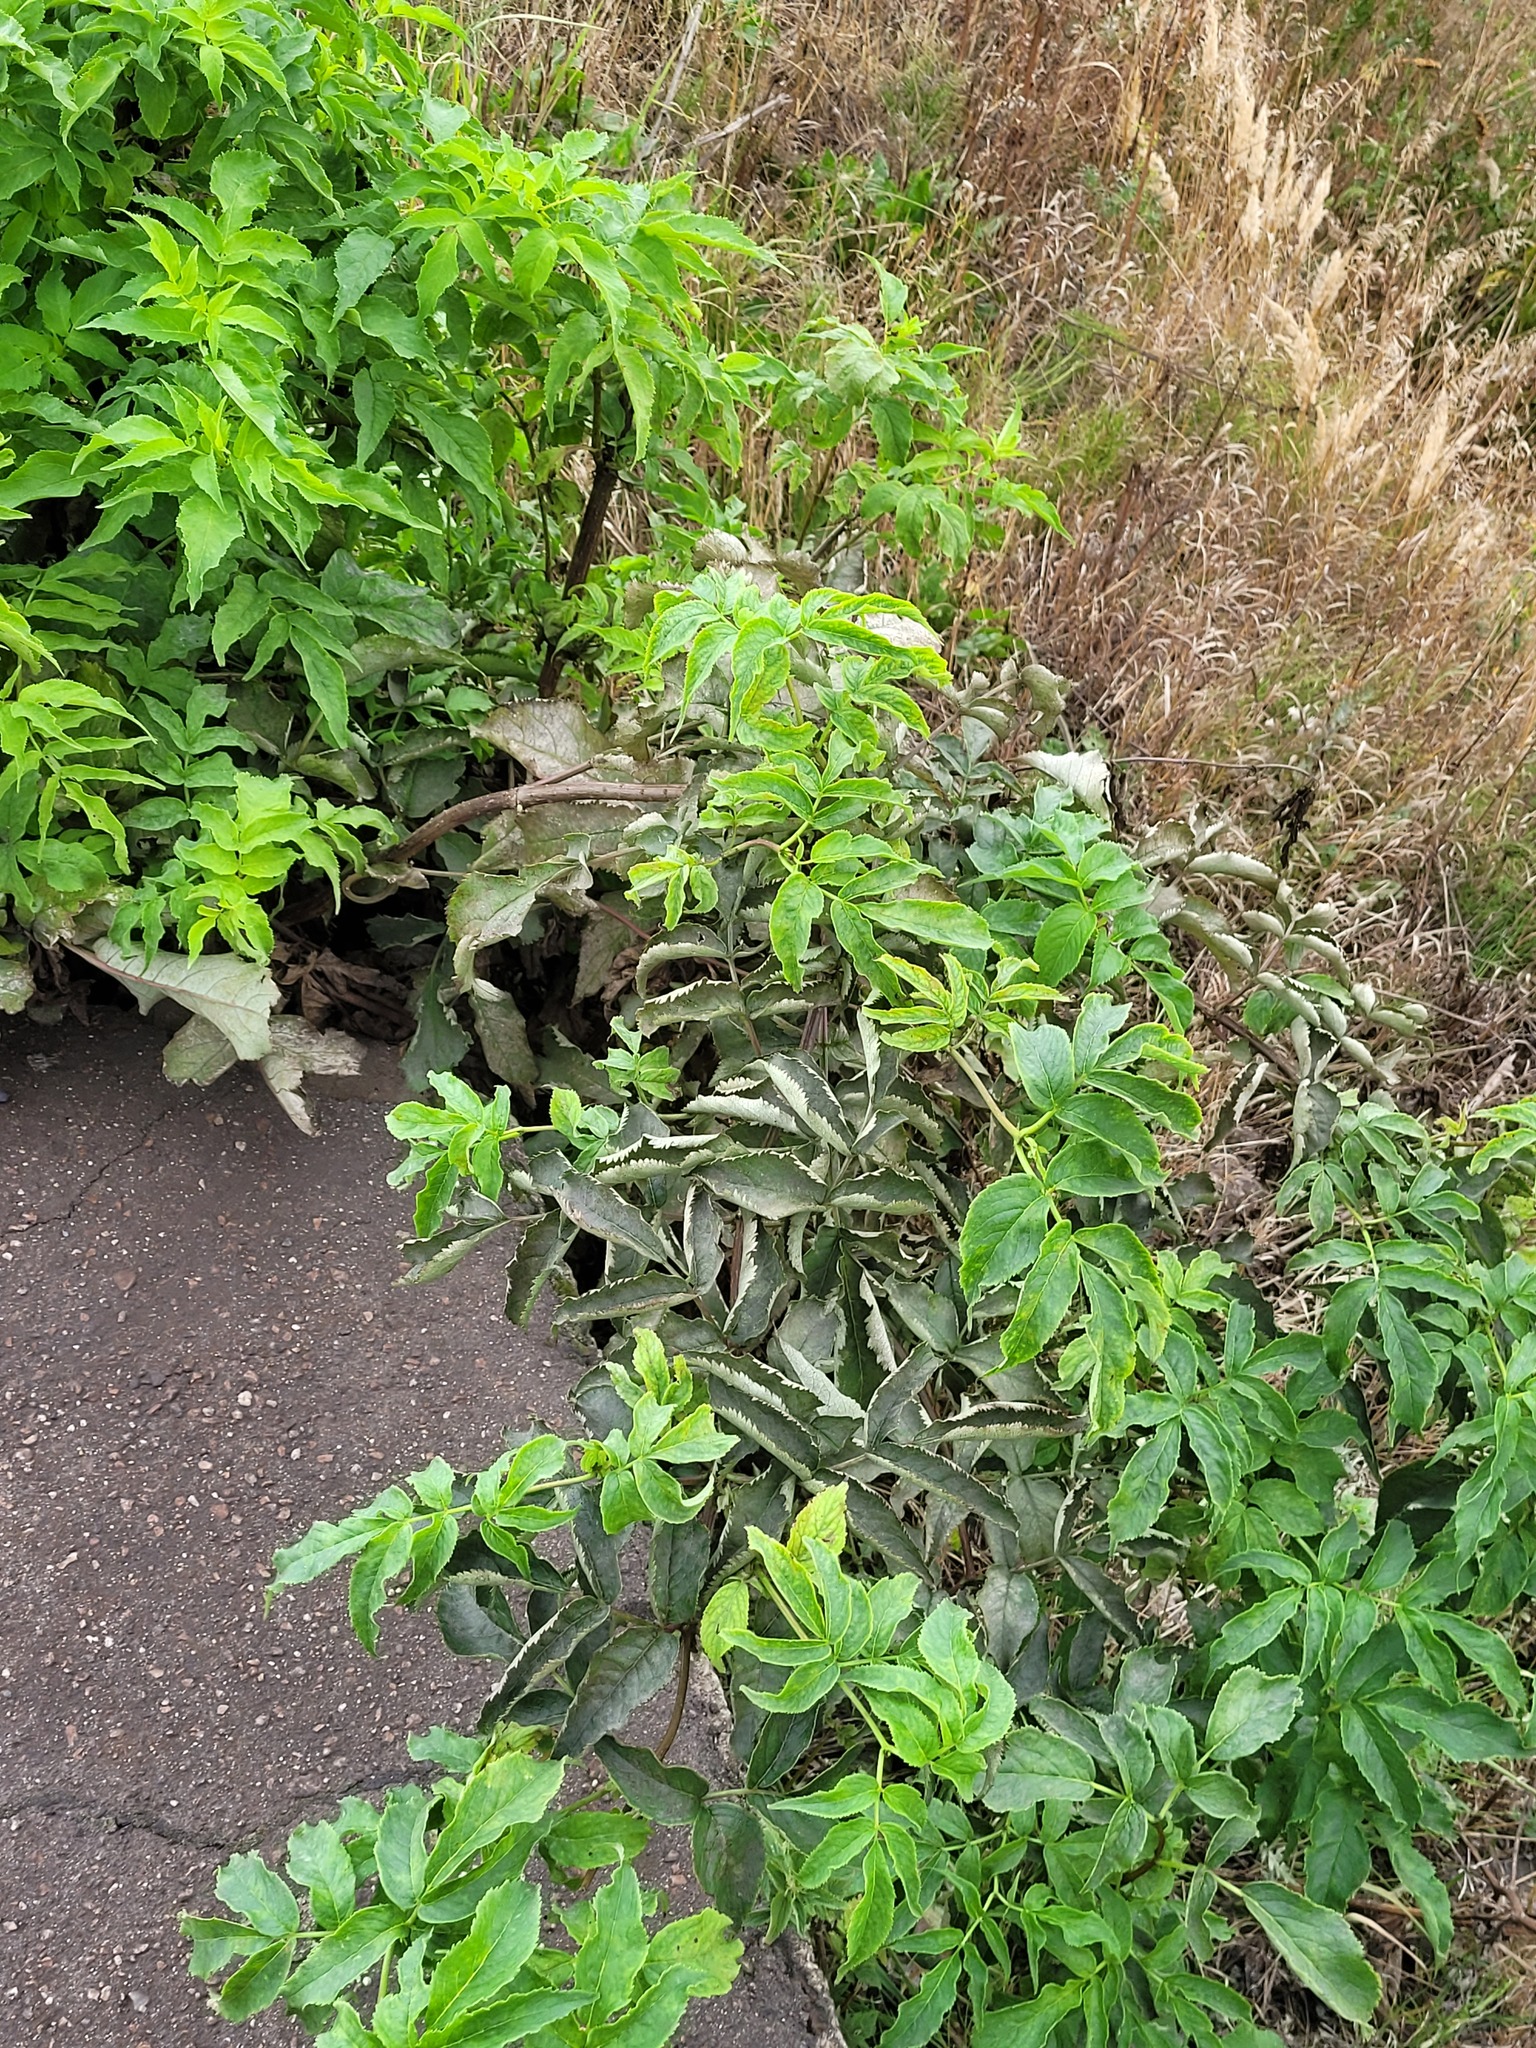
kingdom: Plantae
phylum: Tracheophyta
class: Magnoliopsida
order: Dipsacales
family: Viburnaceae
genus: Sambucus
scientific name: Sambucus racemosa
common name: Red-berried elder
